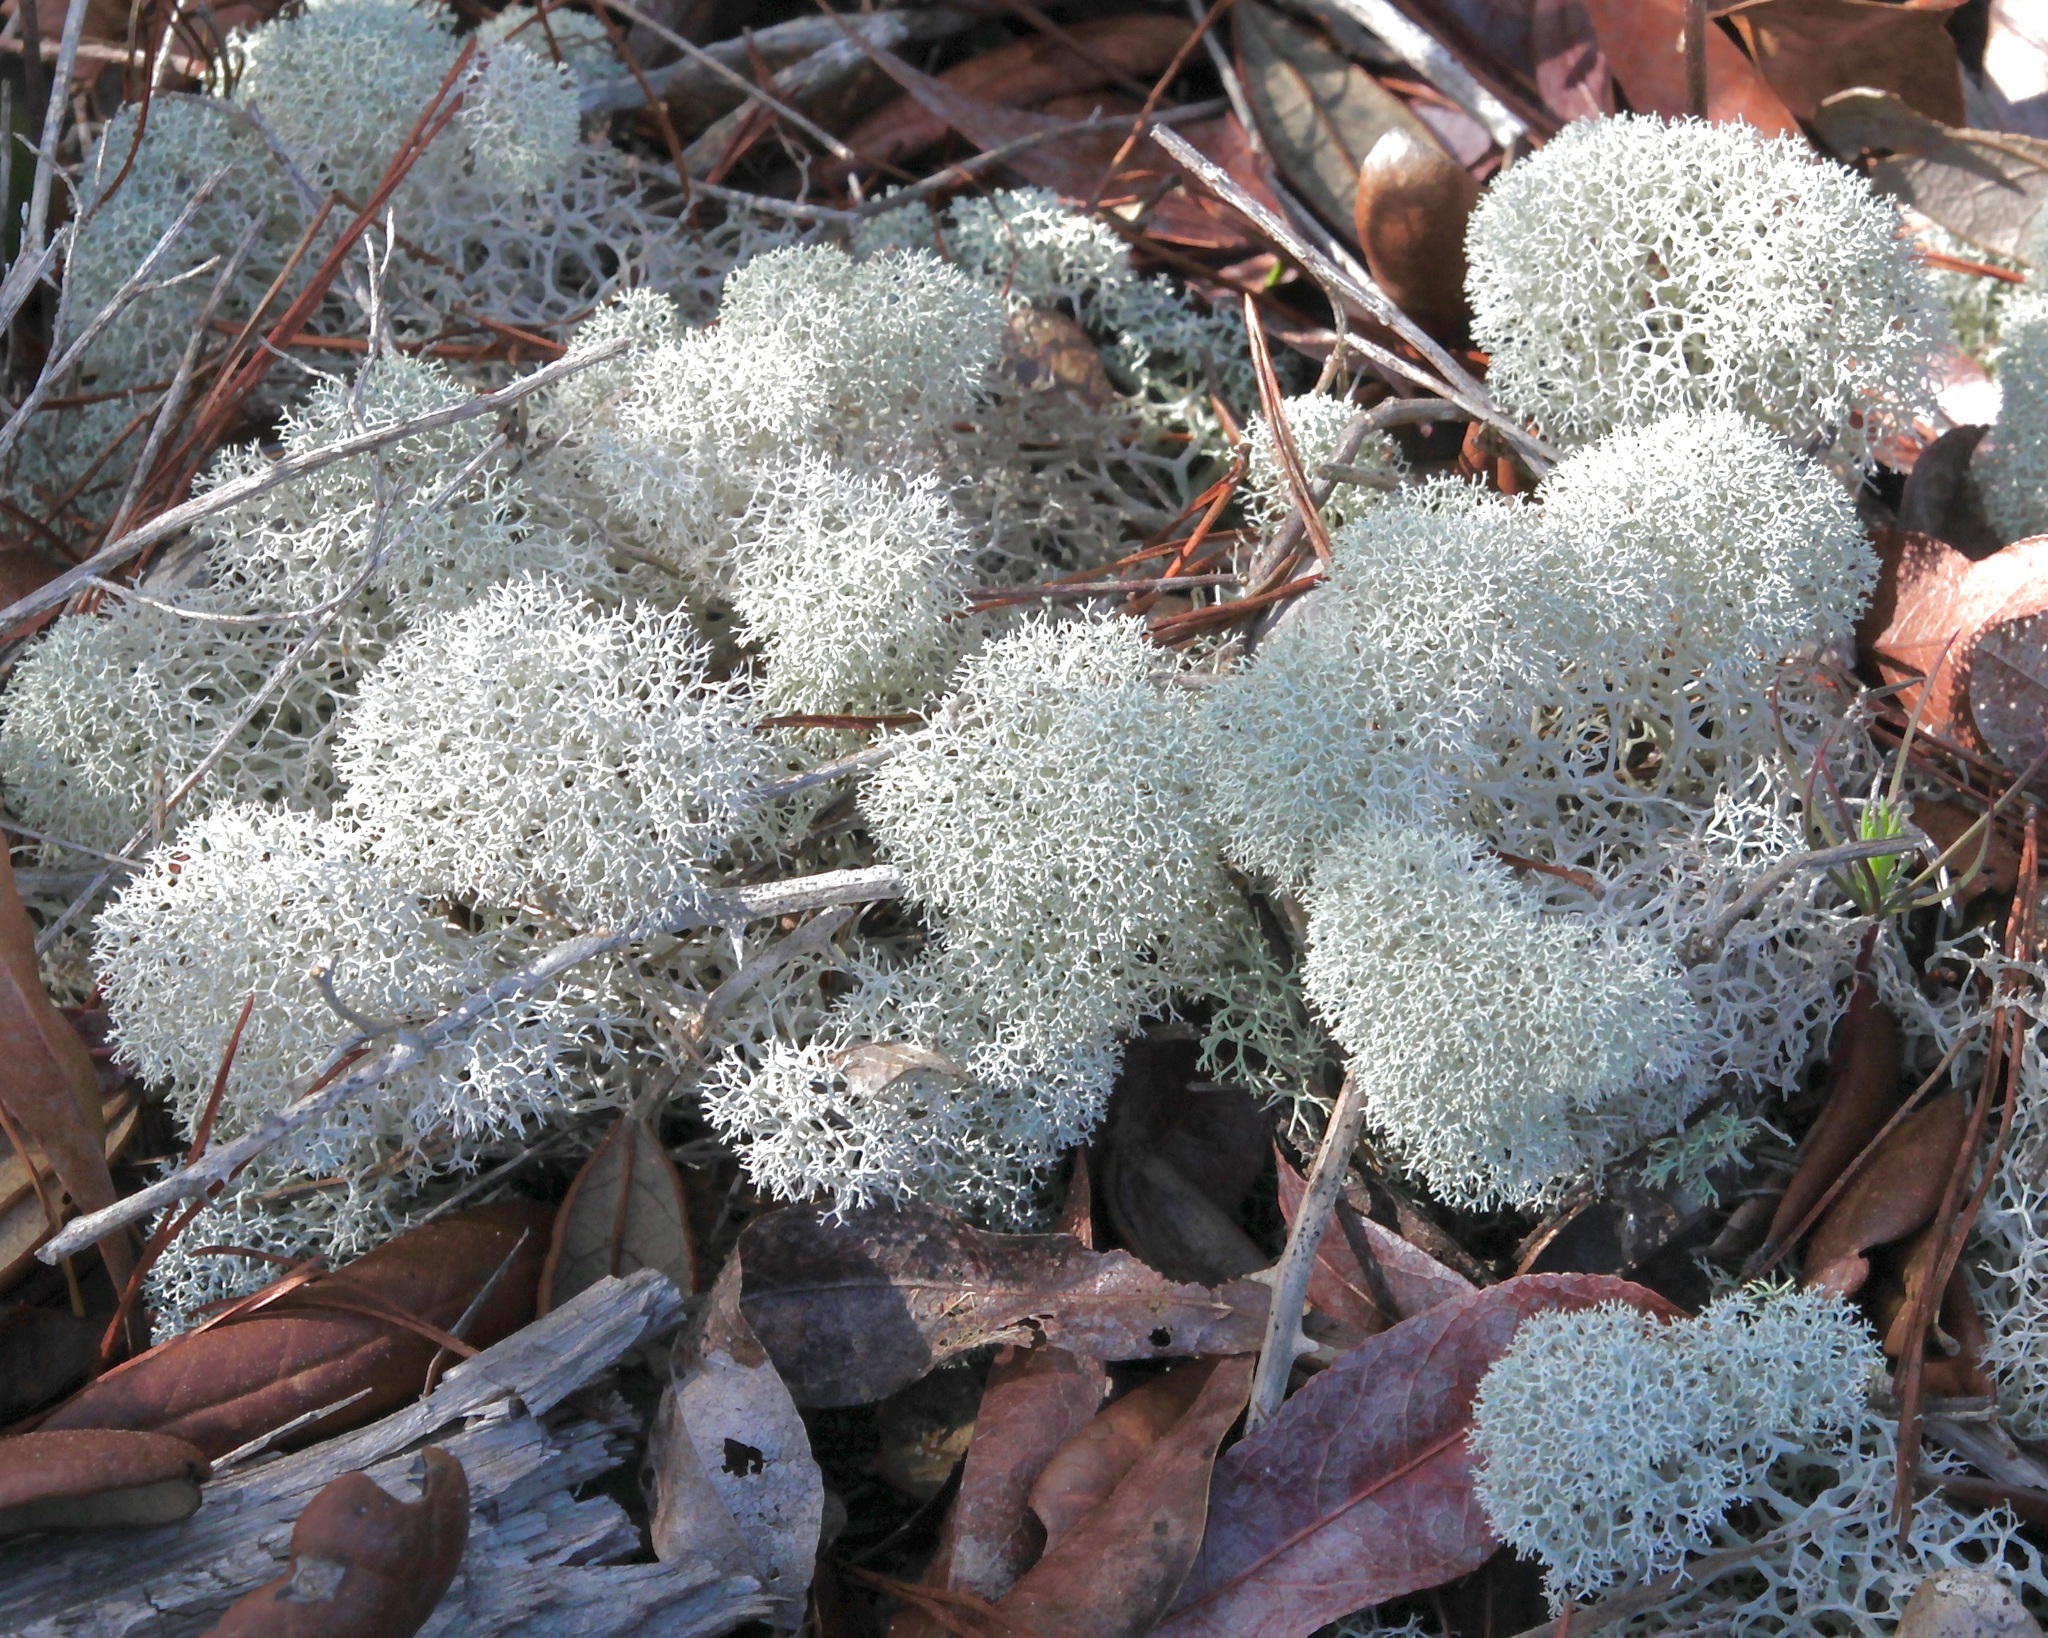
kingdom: Fungi
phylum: Ascomycota
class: Lecanoromycetes
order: Lecanorales
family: Cladoniaceae
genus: Cladonia
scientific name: Cladonia evansii
